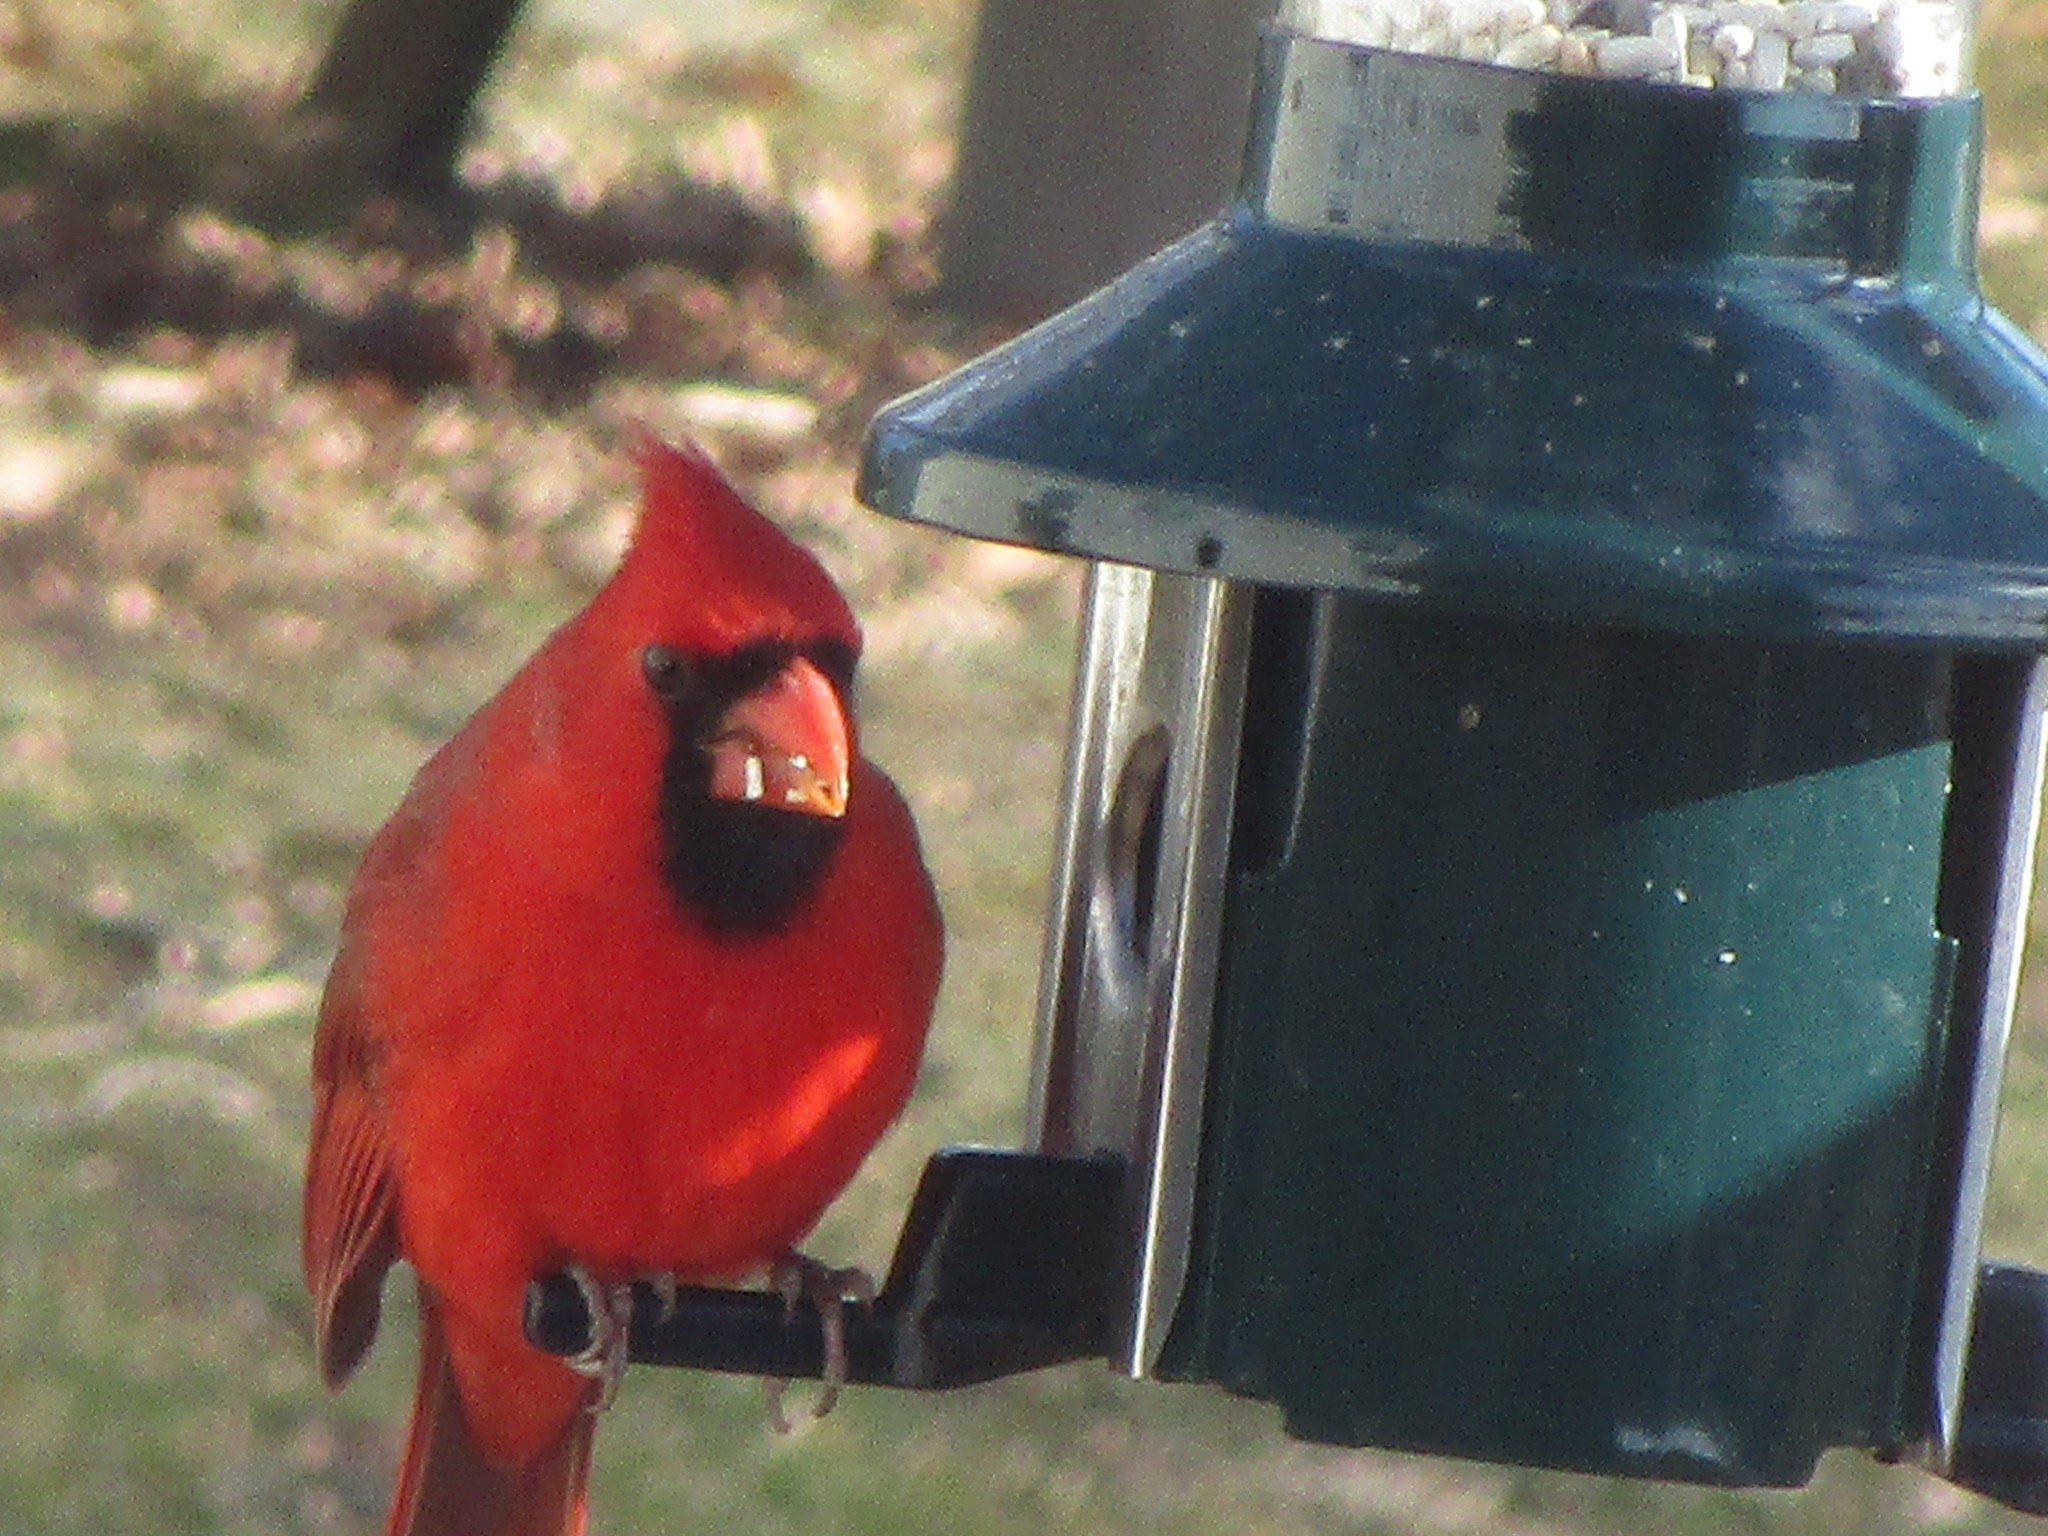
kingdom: Animalia
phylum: Chordata
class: Aves
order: Passeriformes
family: Cardinalidae
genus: Cardinalis
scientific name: Cardinalis cardinalis
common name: Northern cardinal
